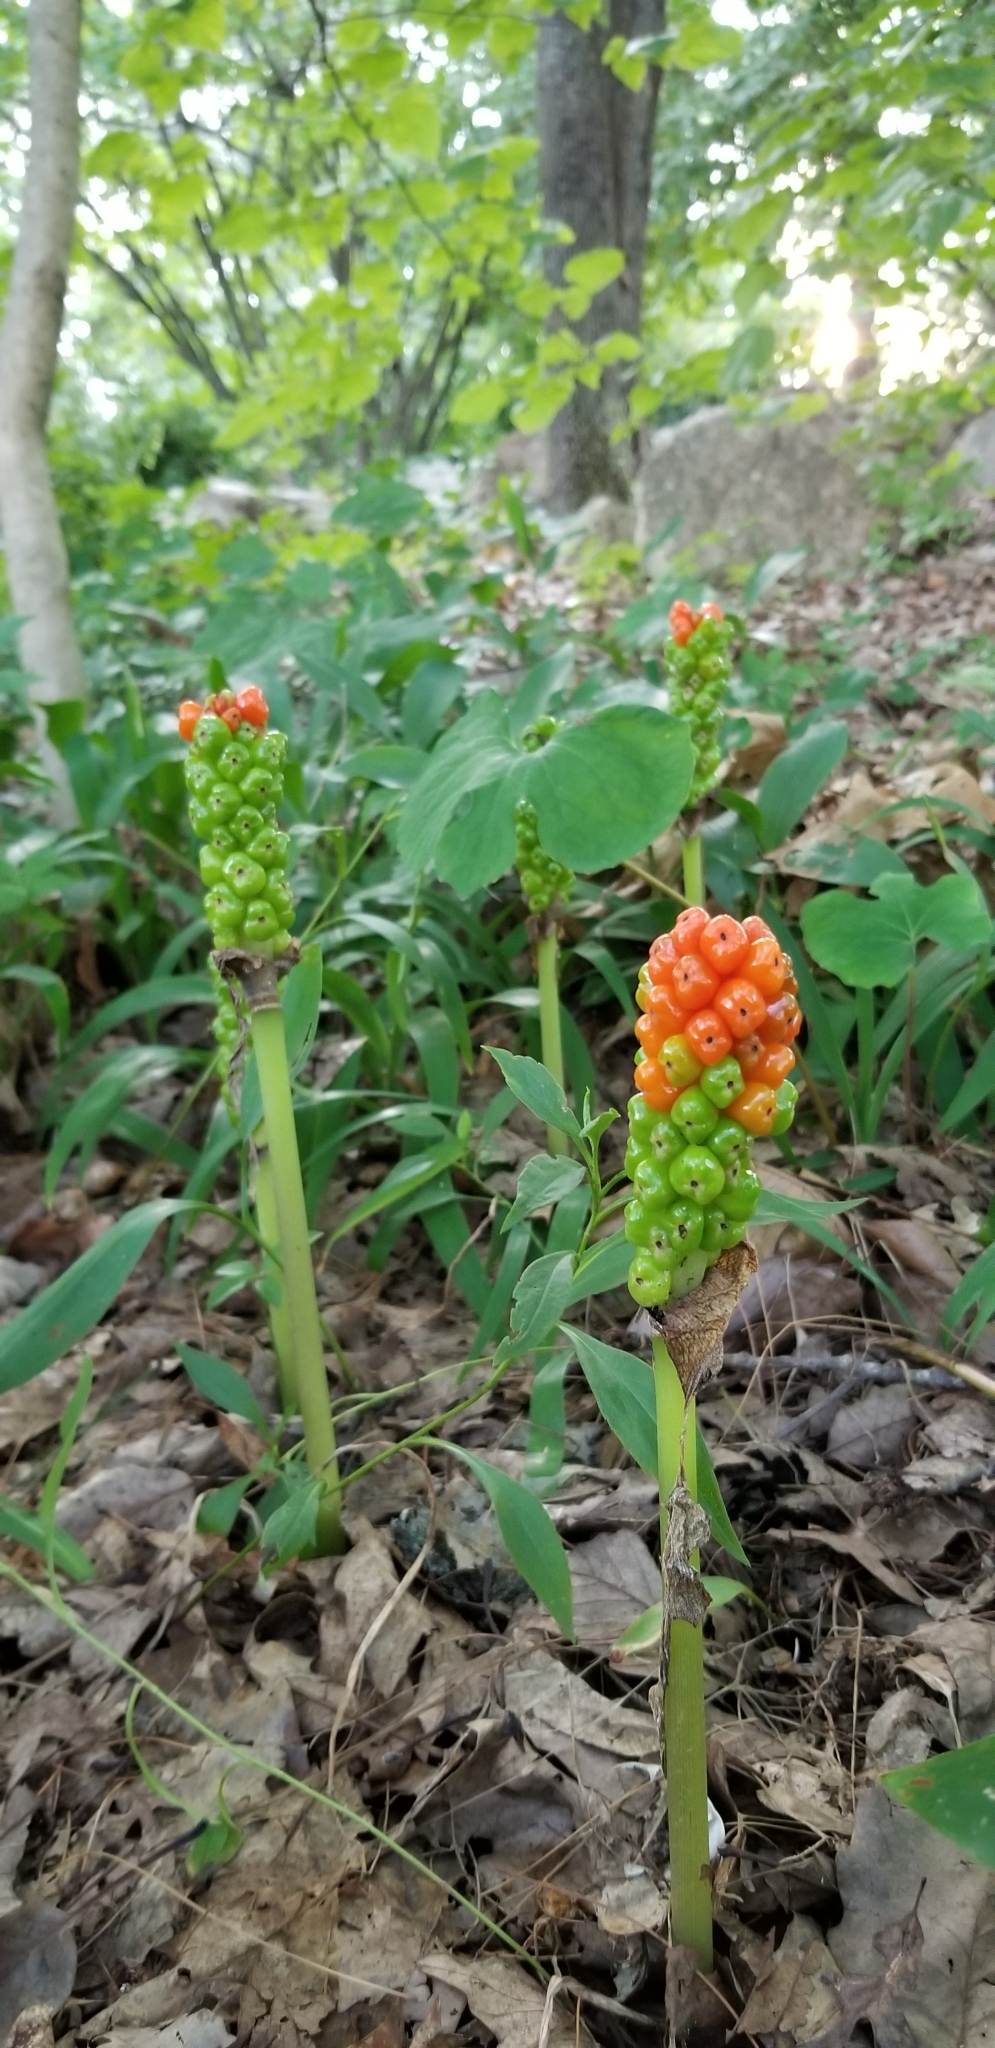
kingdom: Plantae
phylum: Tracheophyta
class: Liliopsida
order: Alismatales
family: Araceae
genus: Arum
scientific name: Arum italicum
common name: Italian lords-and-ladies
